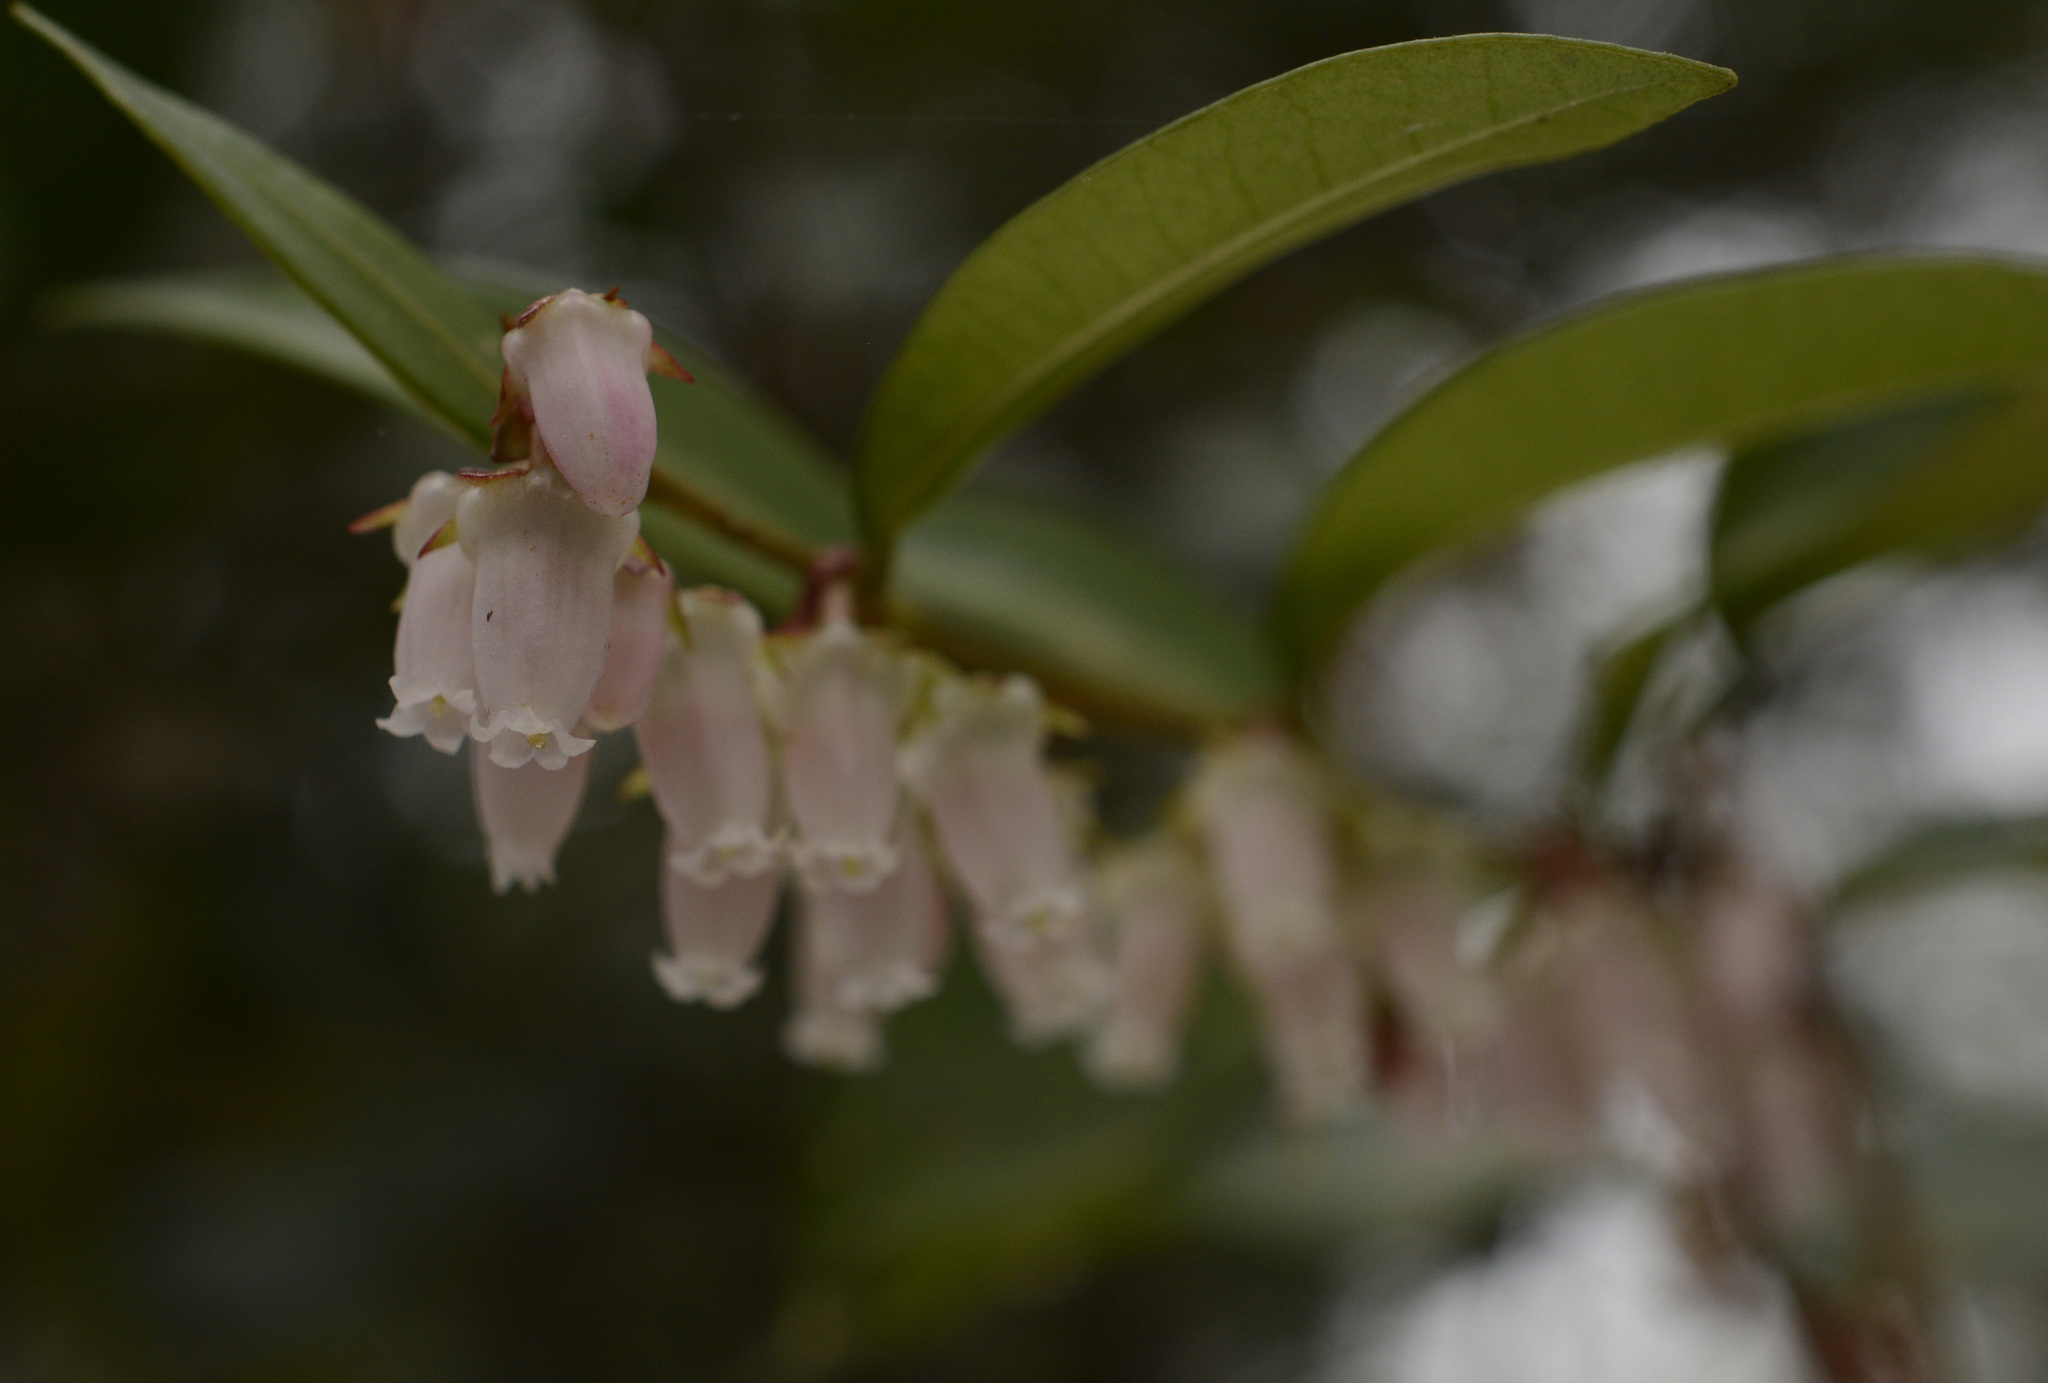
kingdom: Plantae
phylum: Tracheophyta
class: Magnoliopsida
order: Ericales
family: Ericaceae
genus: Lyonia
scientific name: Lyonia lucida
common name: Fetterbush
